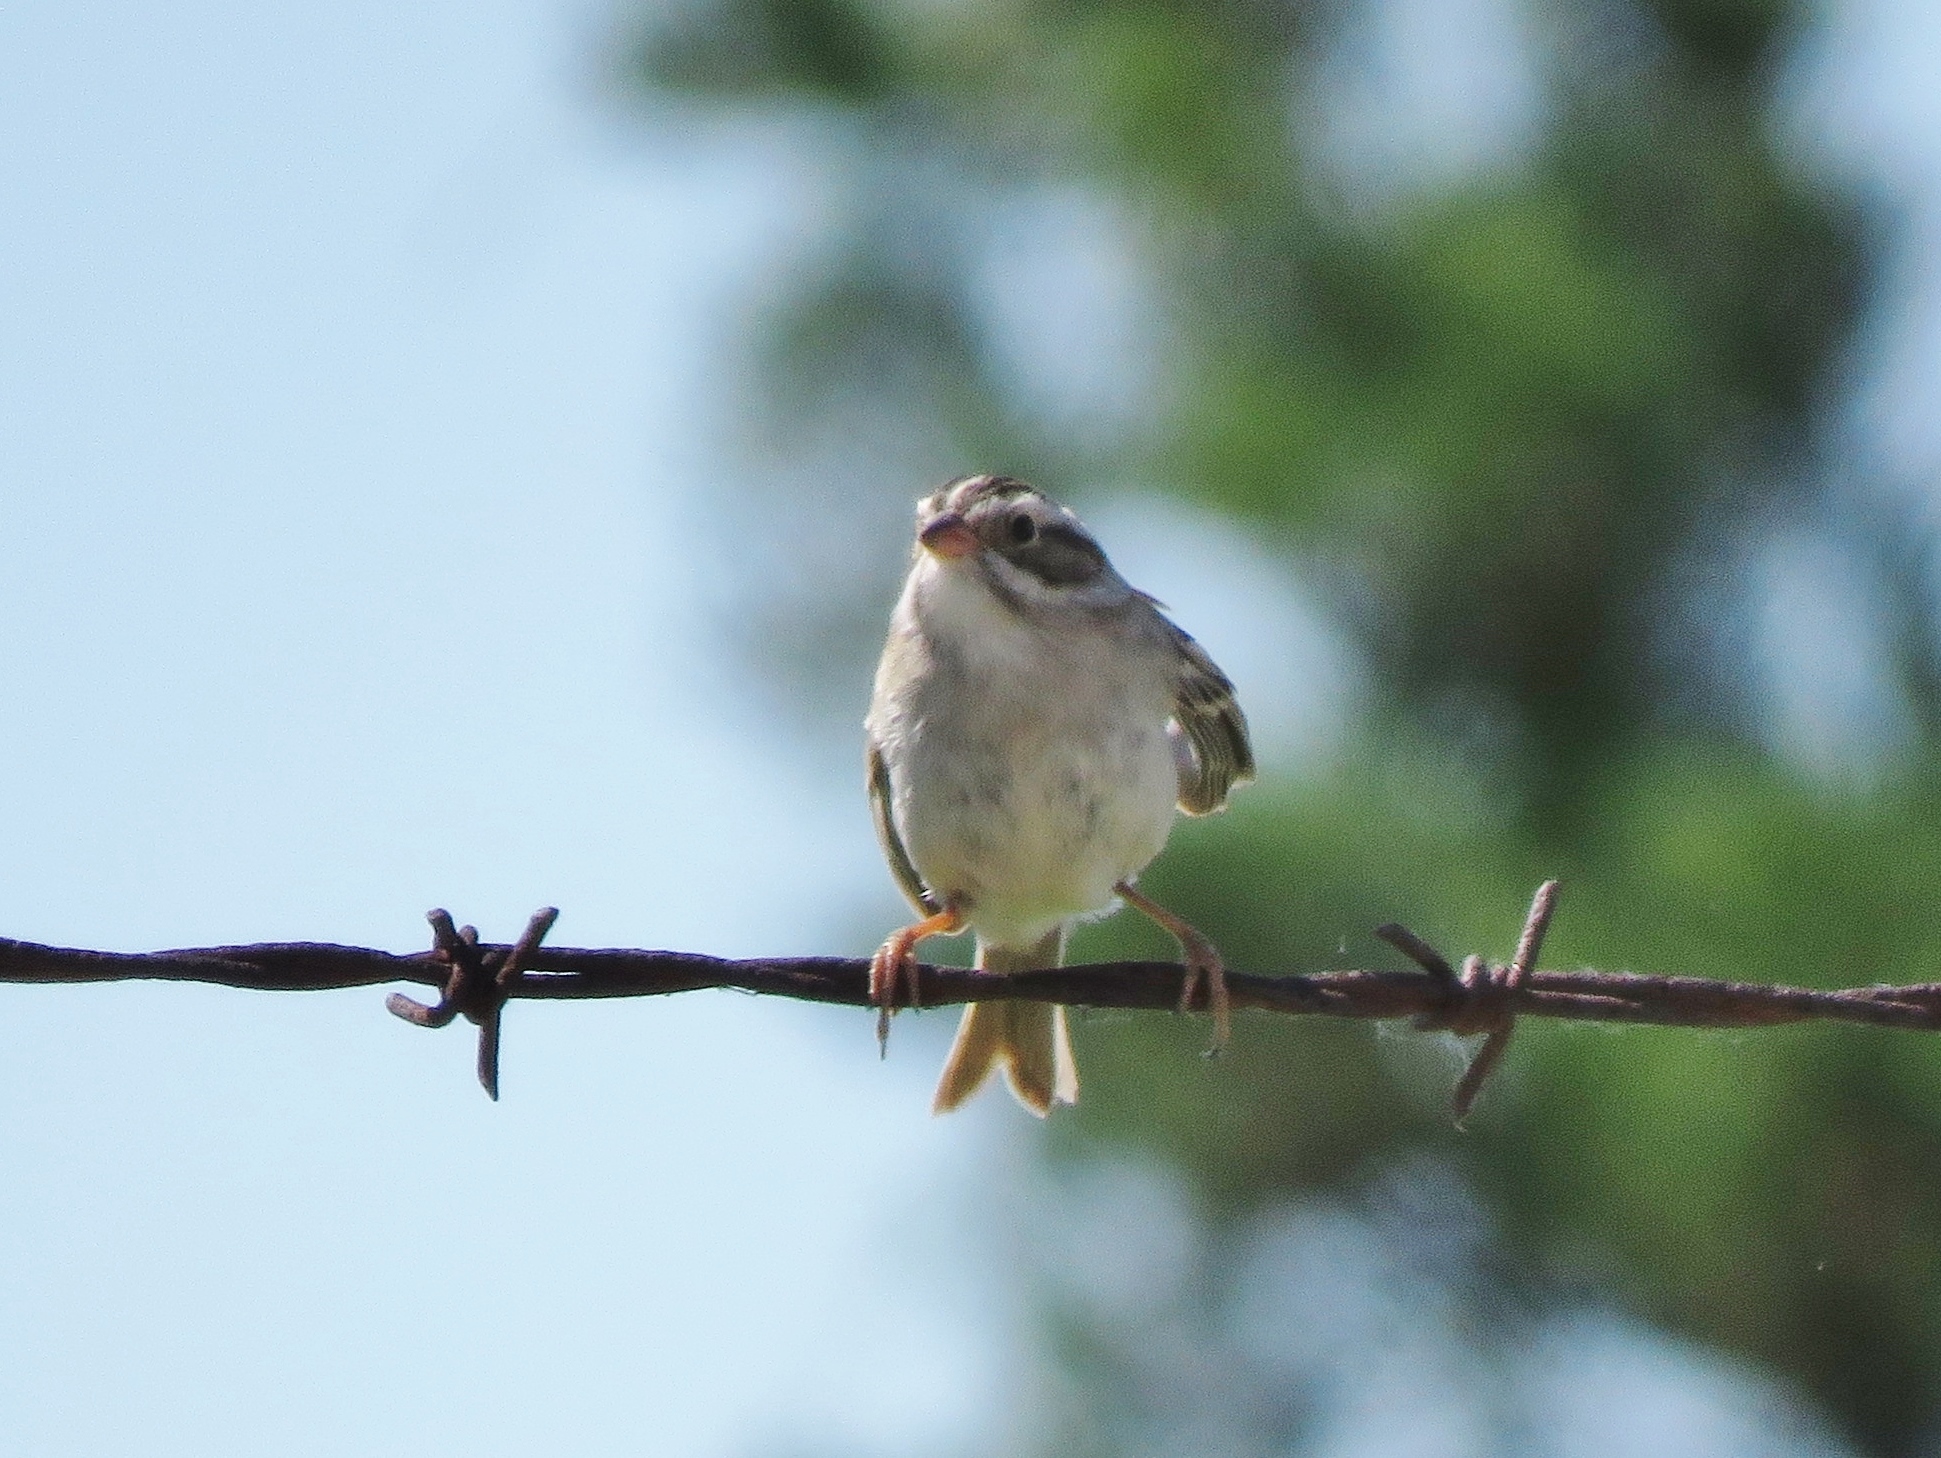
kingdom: Animalia
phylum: Chordata
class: Aves
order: Passeriformes
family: Passerellidae
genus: Spizella
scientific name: Spizella pallida
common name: Clay-colored sparrow
